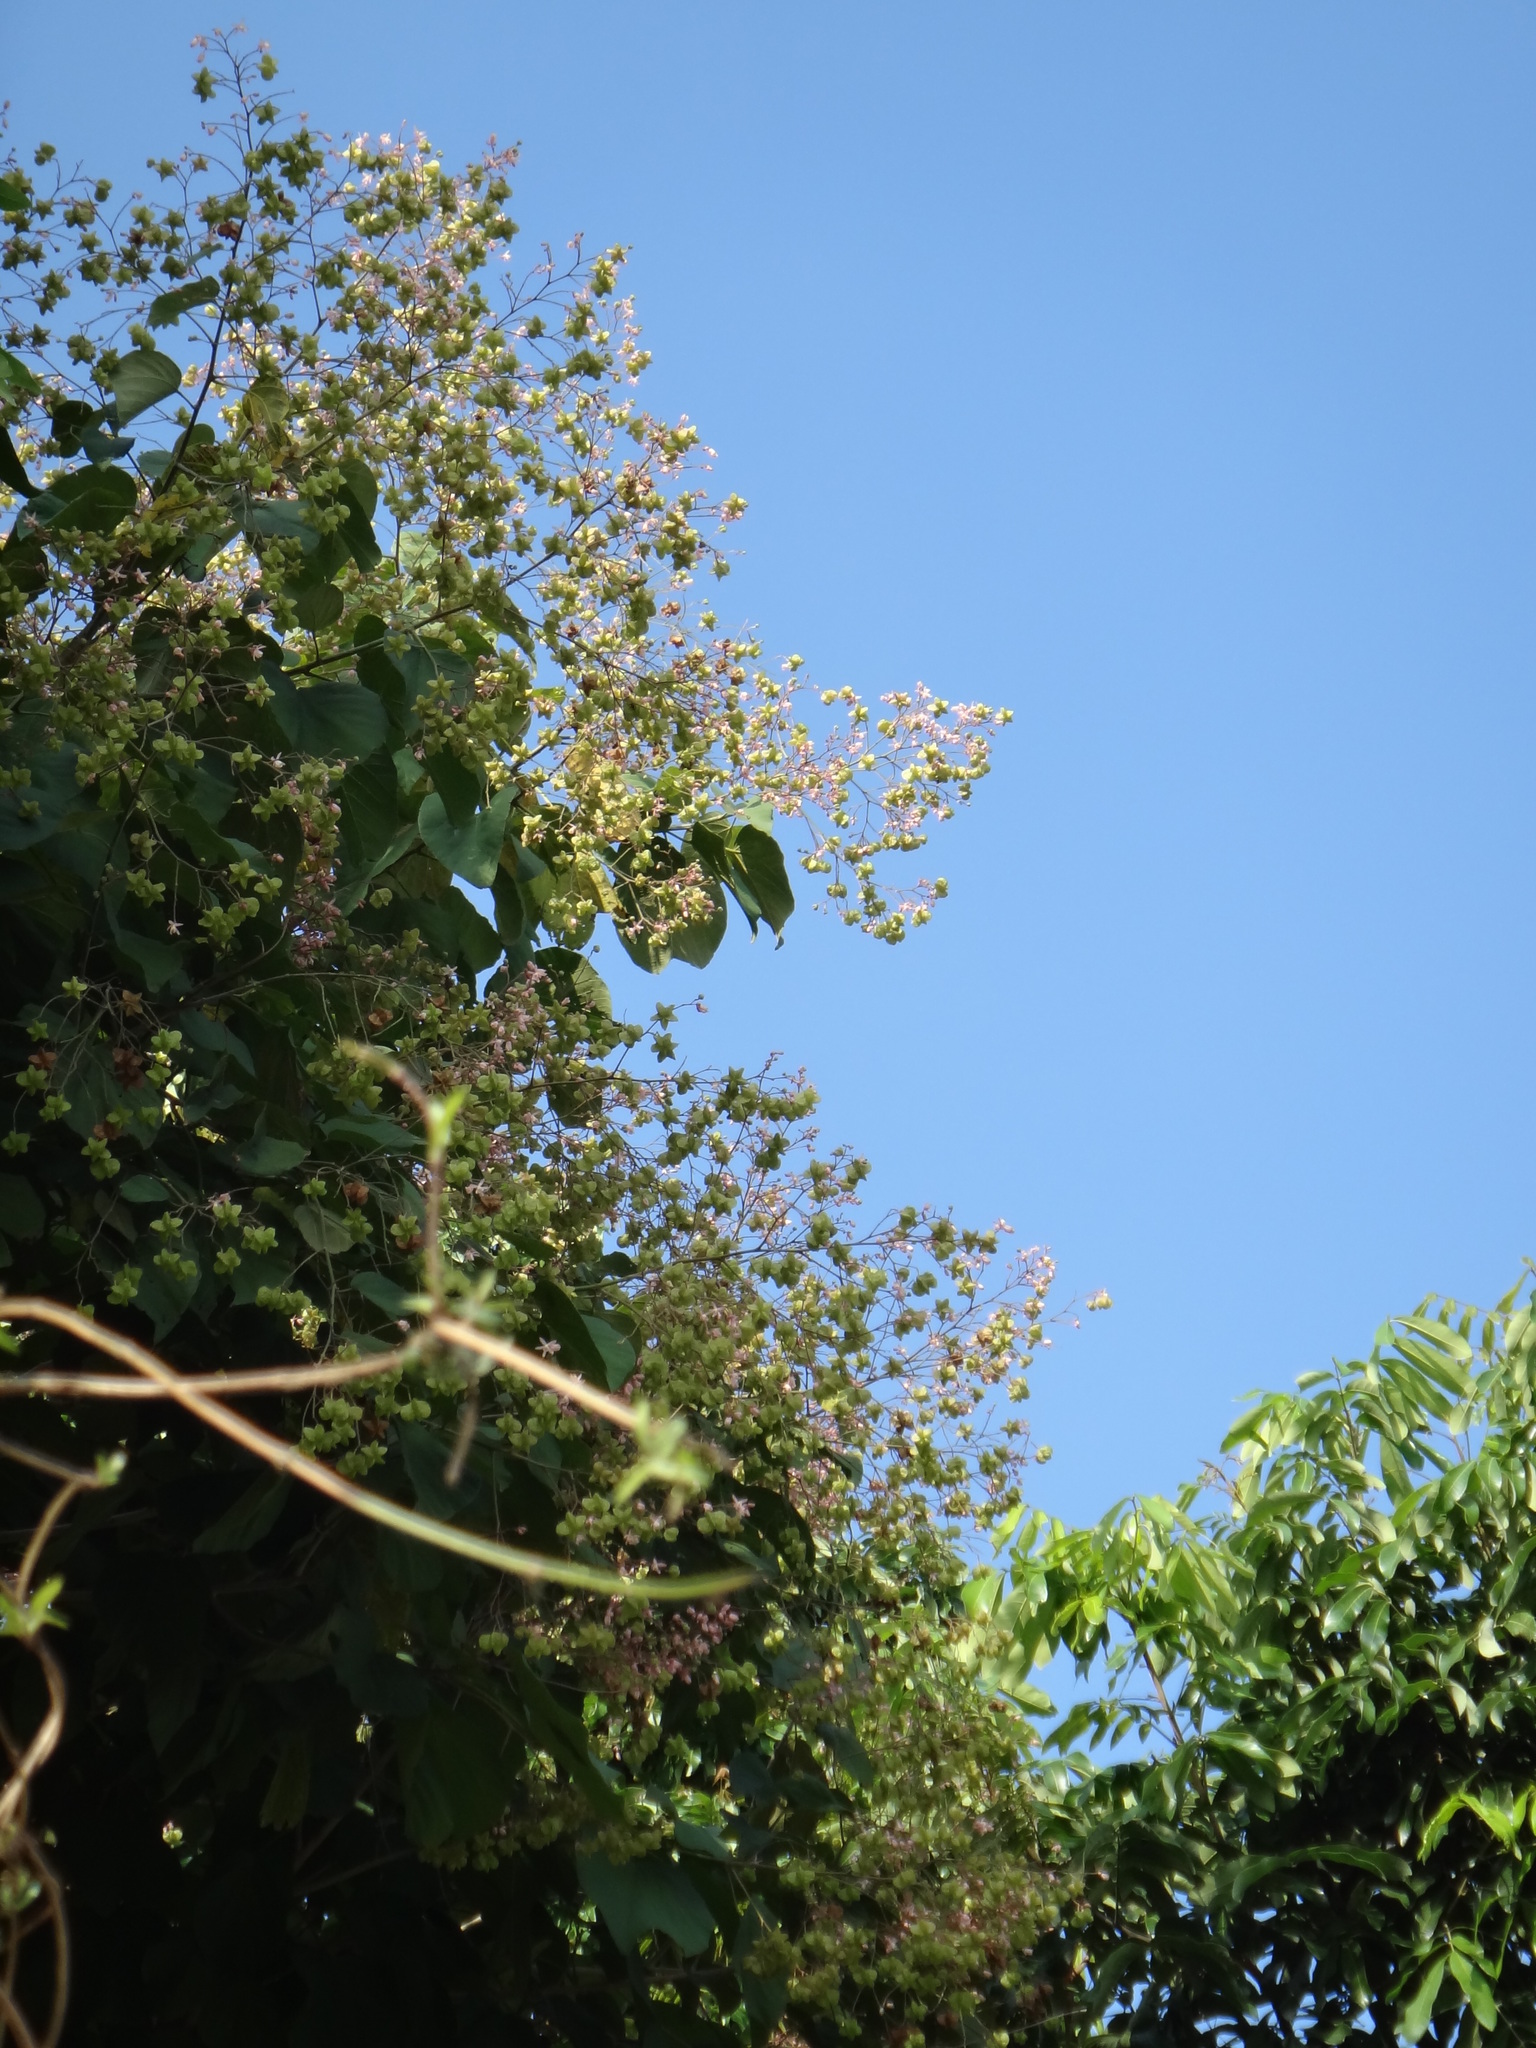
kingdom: Plantae
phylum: Tracheophyta
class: Magnoliopsida
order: Malvales
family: Malvaceae
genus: Kleinhovia
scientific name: Kleinhovia hospita
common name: Guest-tree
